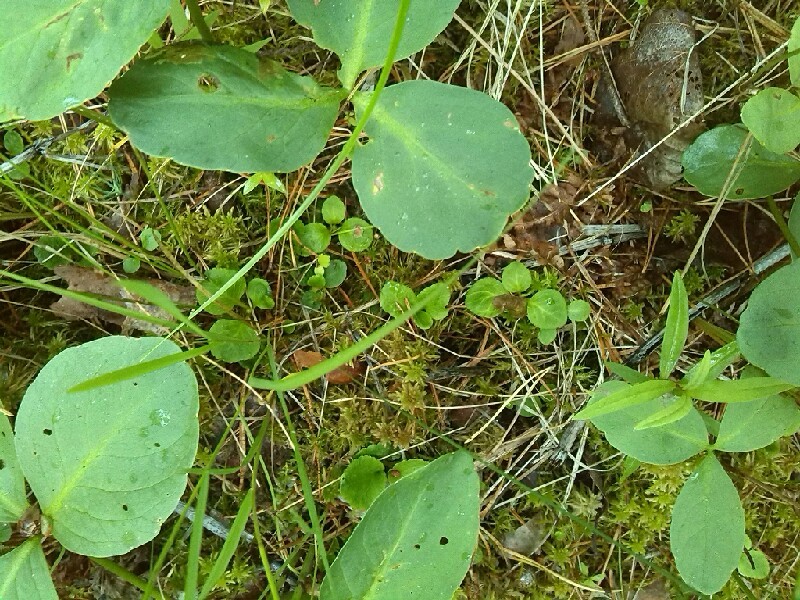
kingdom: Plantae
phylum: Tracheophyta
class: Magnoliopsida
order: Ericales
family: Ericaceae
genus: Moneses
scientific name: Moneses uniflora
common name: One-flowered wintergreen
